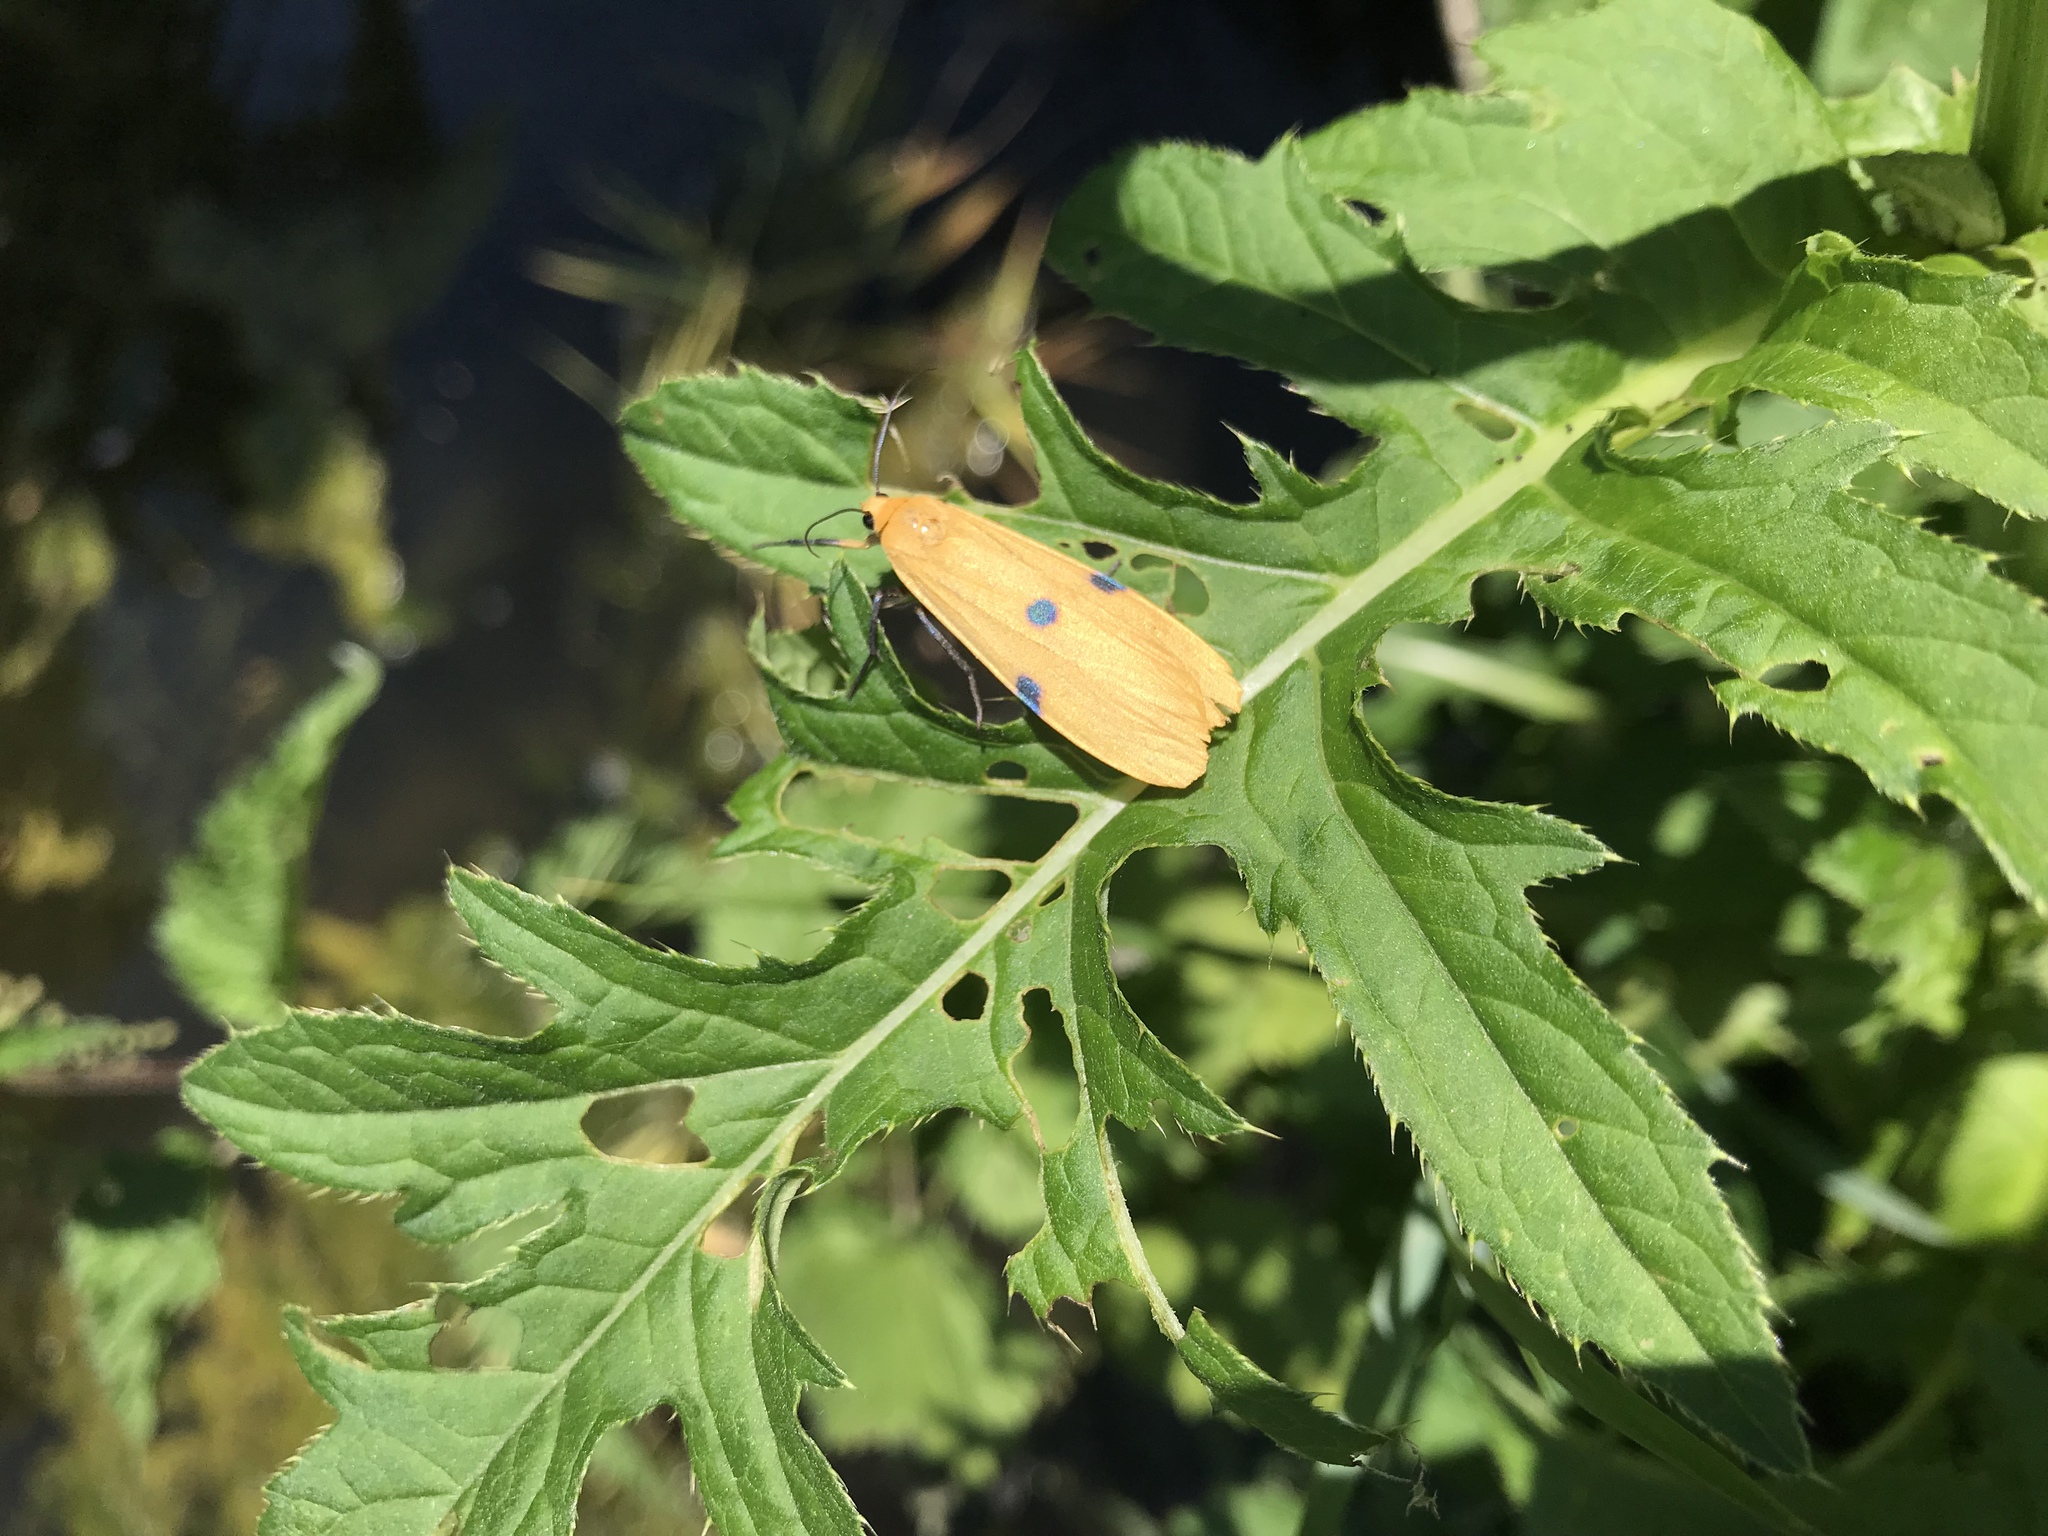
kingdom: Animalia
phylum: Arthropoda
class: Insecta
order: Lepidoptera
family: Erebidae
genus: Lithosia
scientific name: Lithosia quadra
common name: Four-spotted footman
